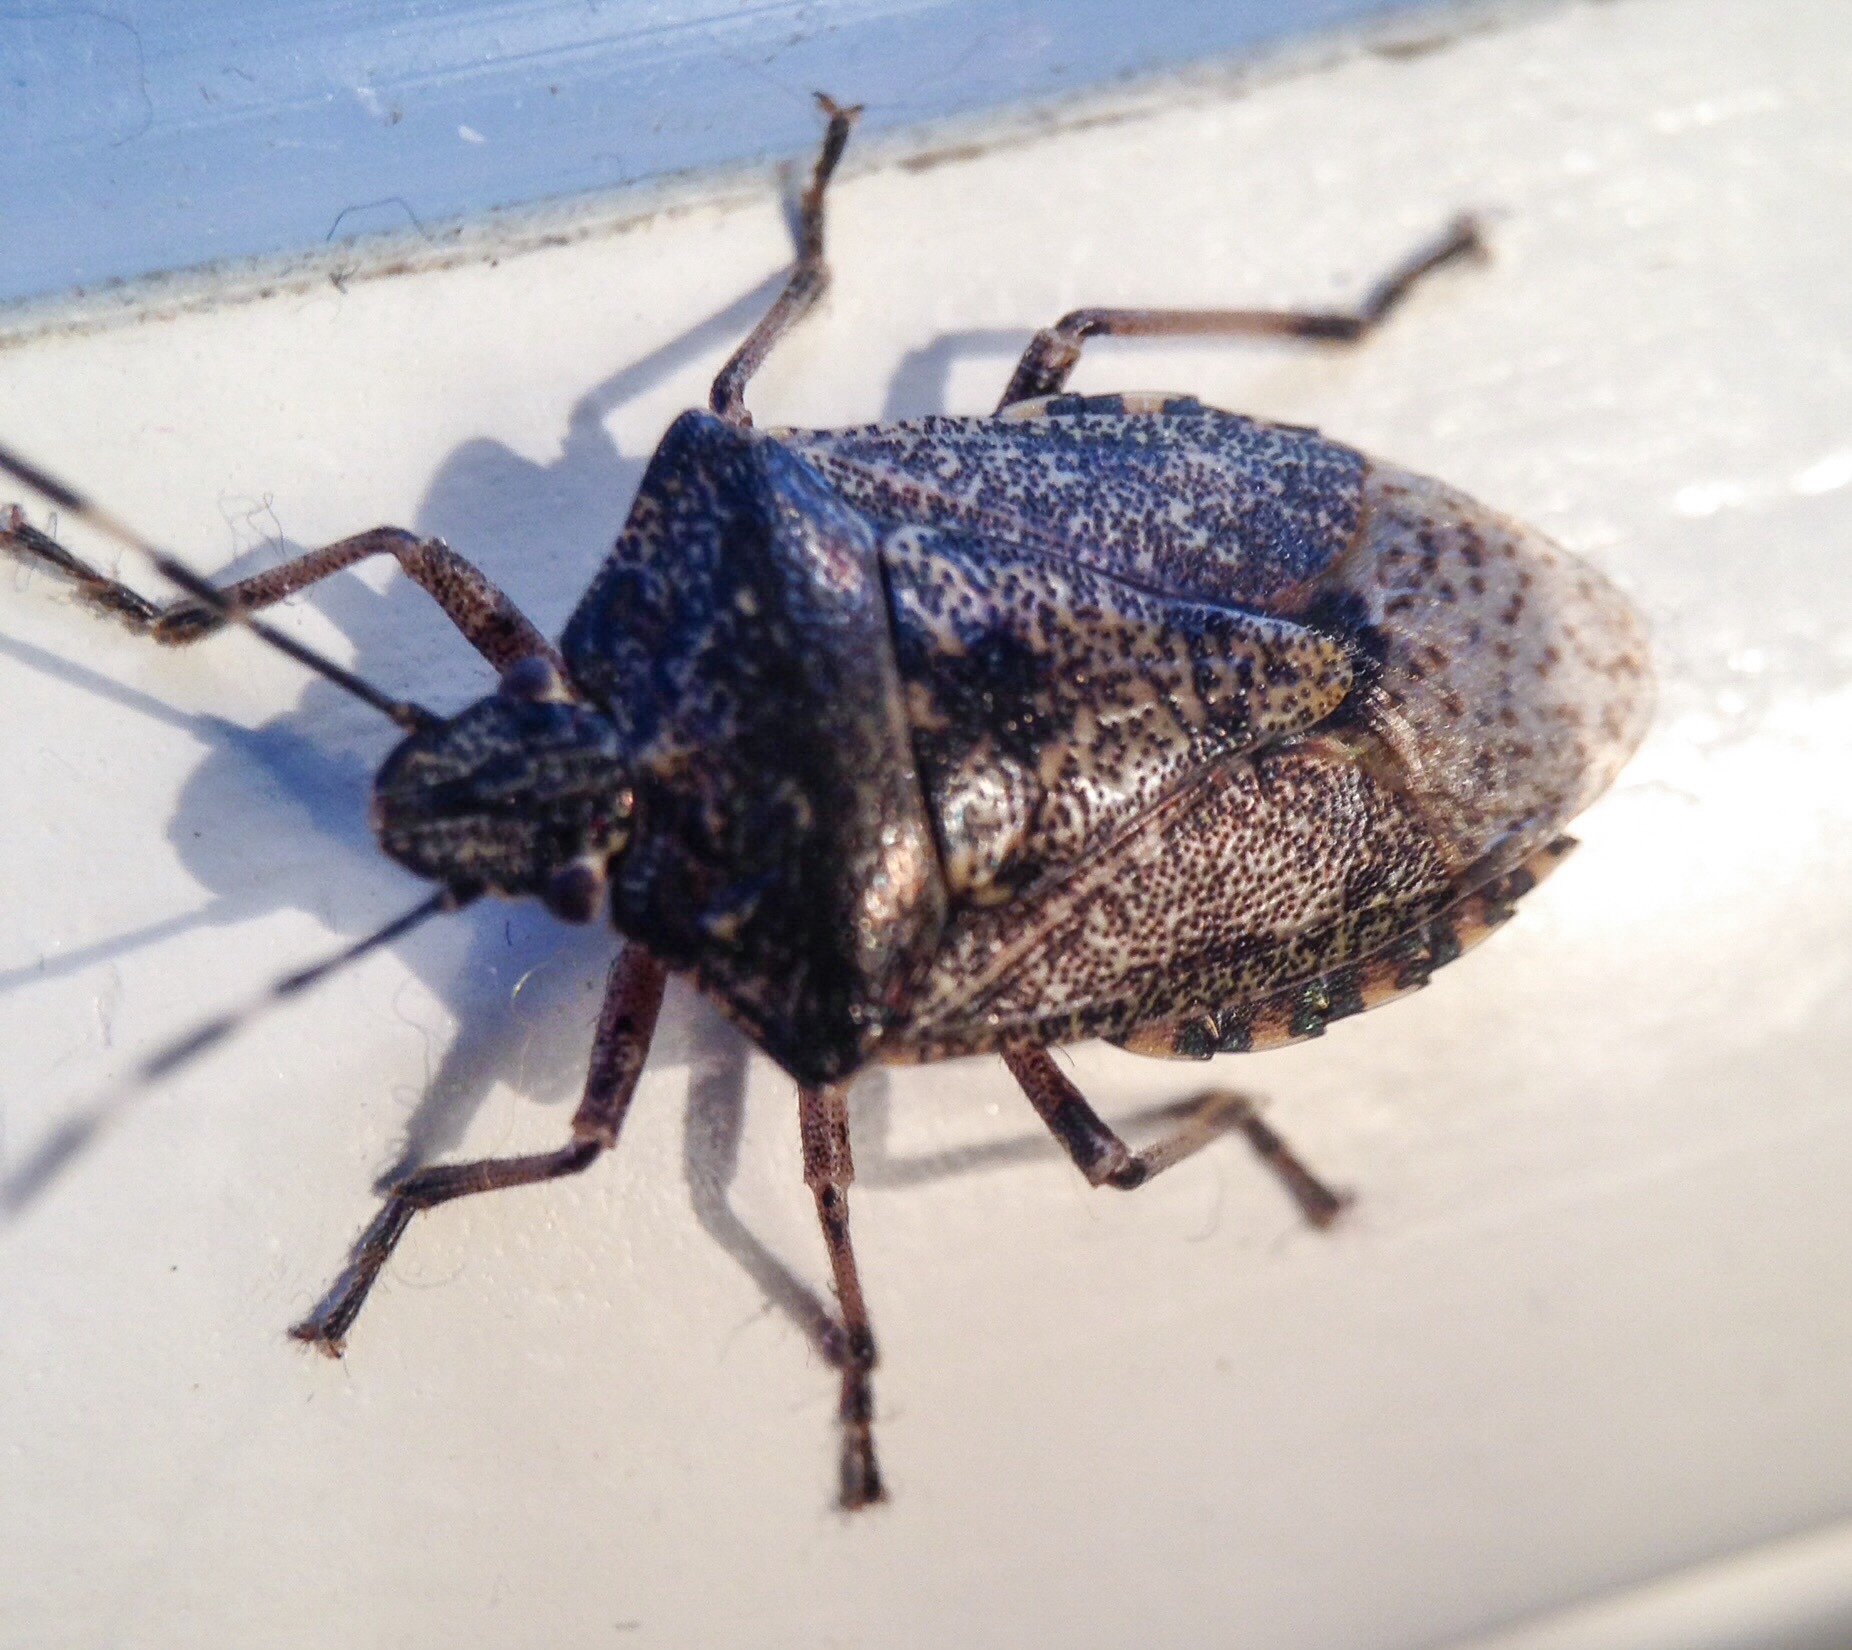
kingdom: Animalia
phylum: Arthropoda
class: Insecta
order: Hemiptera
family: Pentatomidae
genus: Rhaphigaster
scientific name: Rhaphigaster nebulosa
